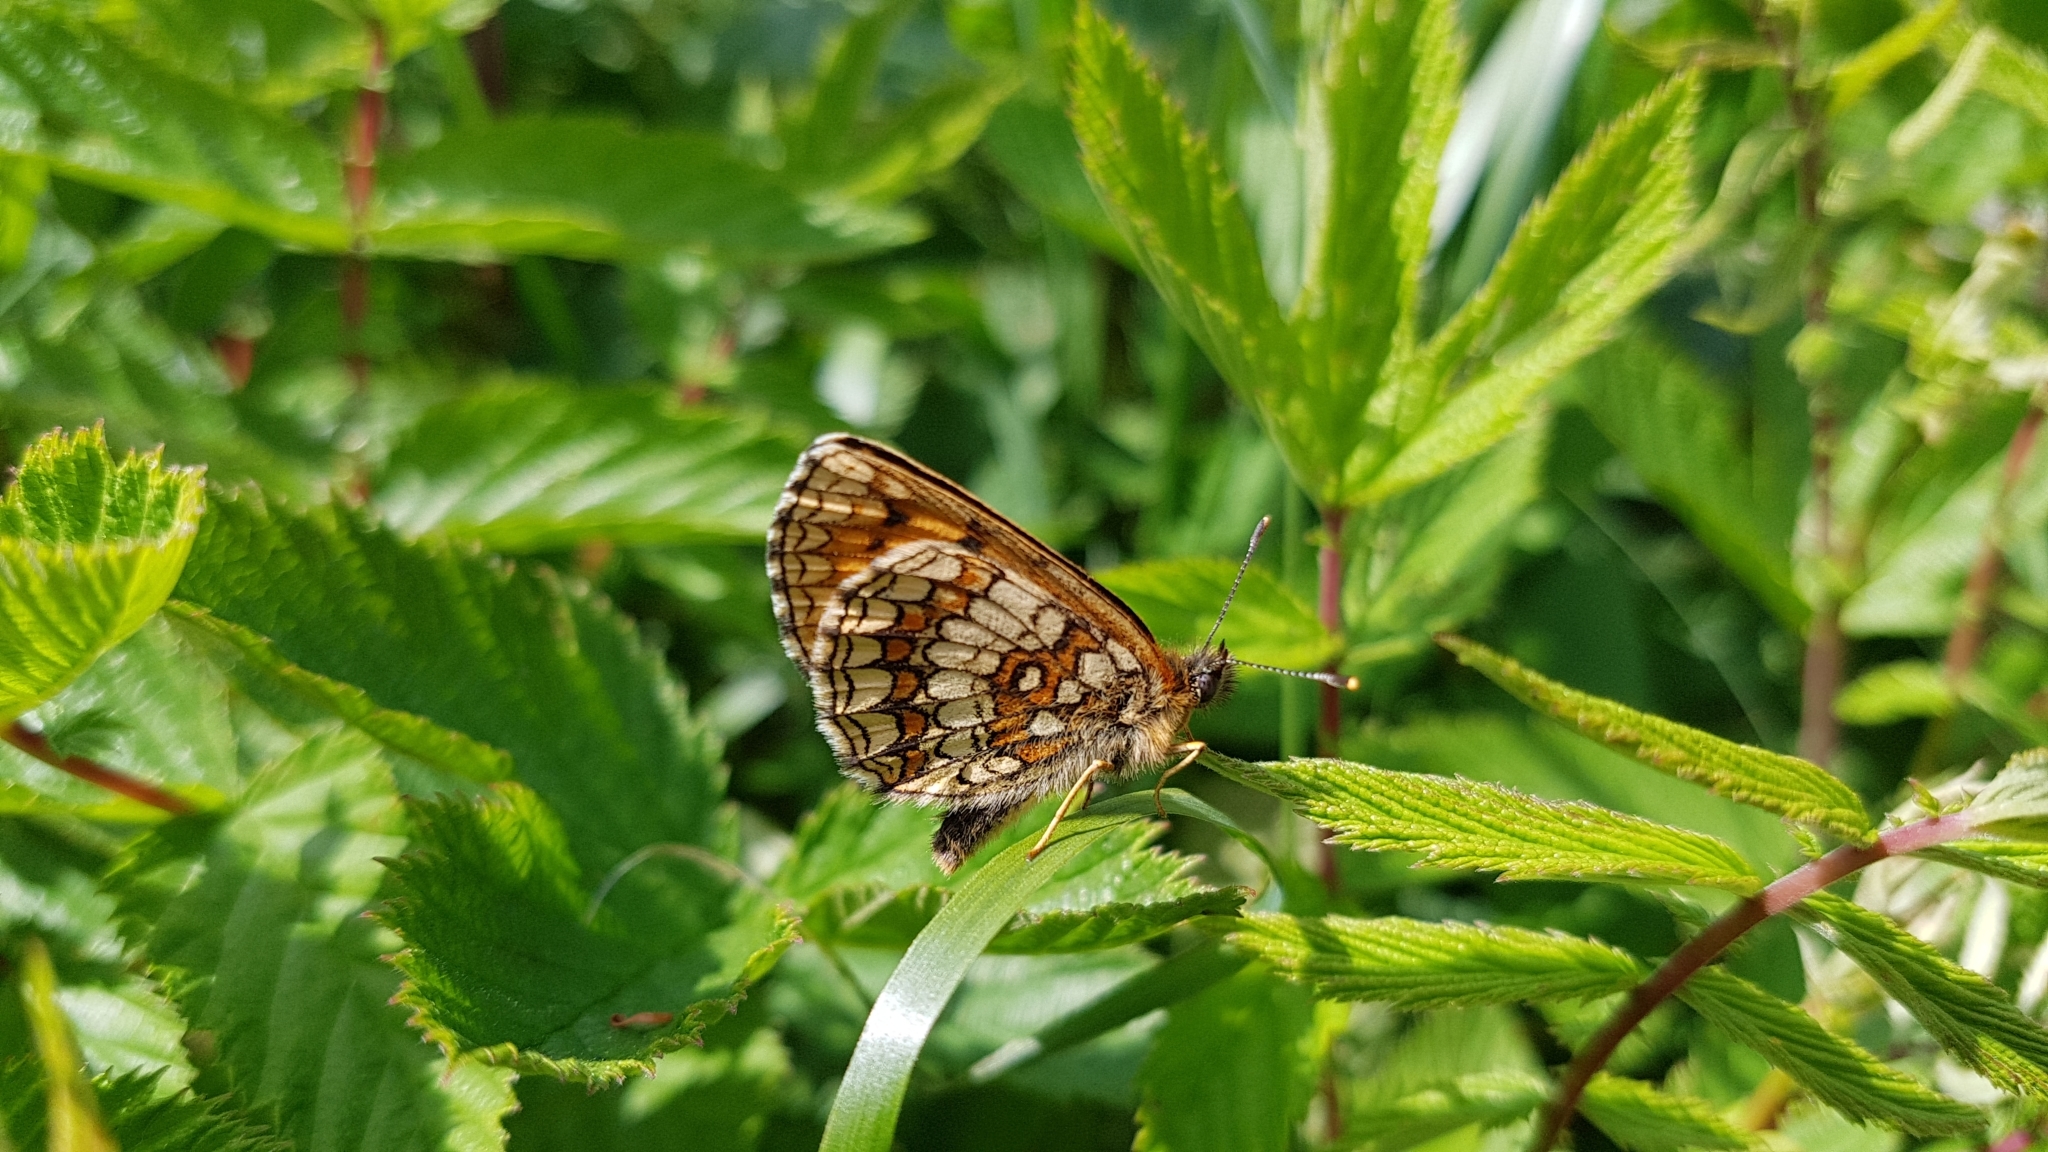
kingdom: Animalia
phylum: Arthropoda
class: Insecta
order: Lepidoptera
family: Nymphalidae
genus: Melitaea
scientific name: Melitaea athalia
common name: Heath fritillary
